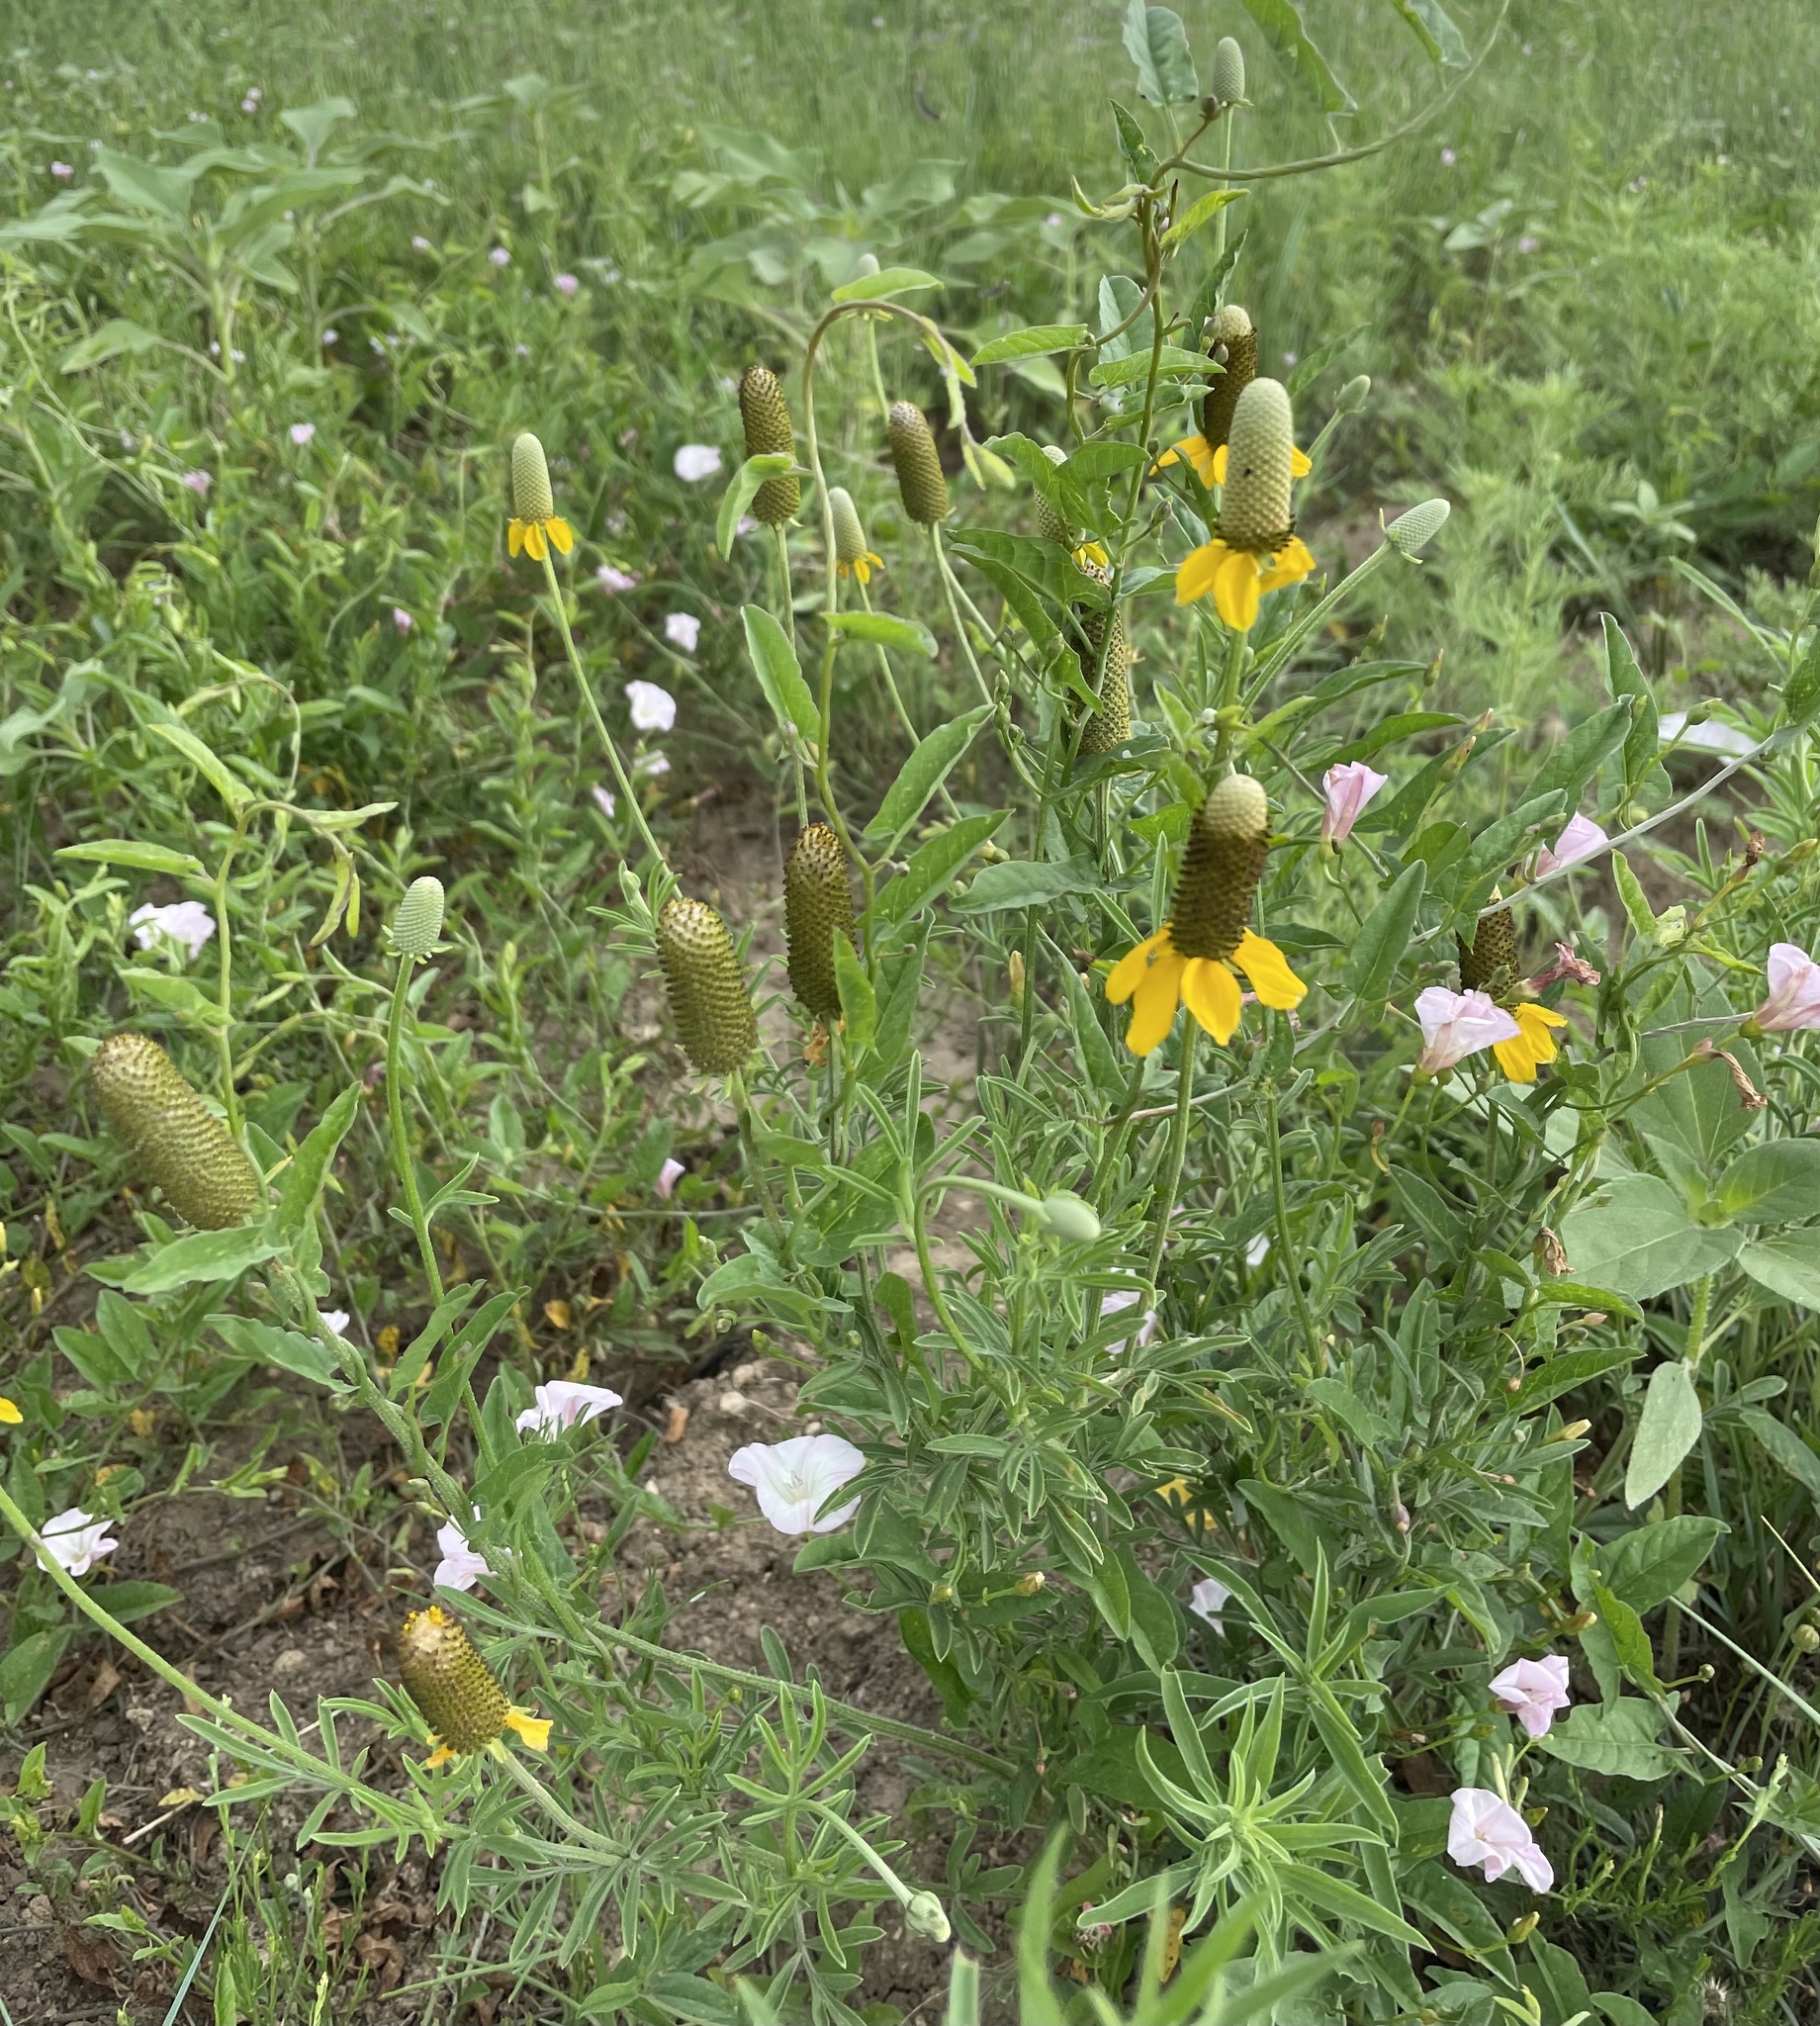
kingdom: Plantae
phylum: Tracheophyta
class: Magnoliopsida
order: Asterales
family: Asteraceae
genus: Ratibida
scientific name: Ratibida columnifera
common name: Prairie coneflower
